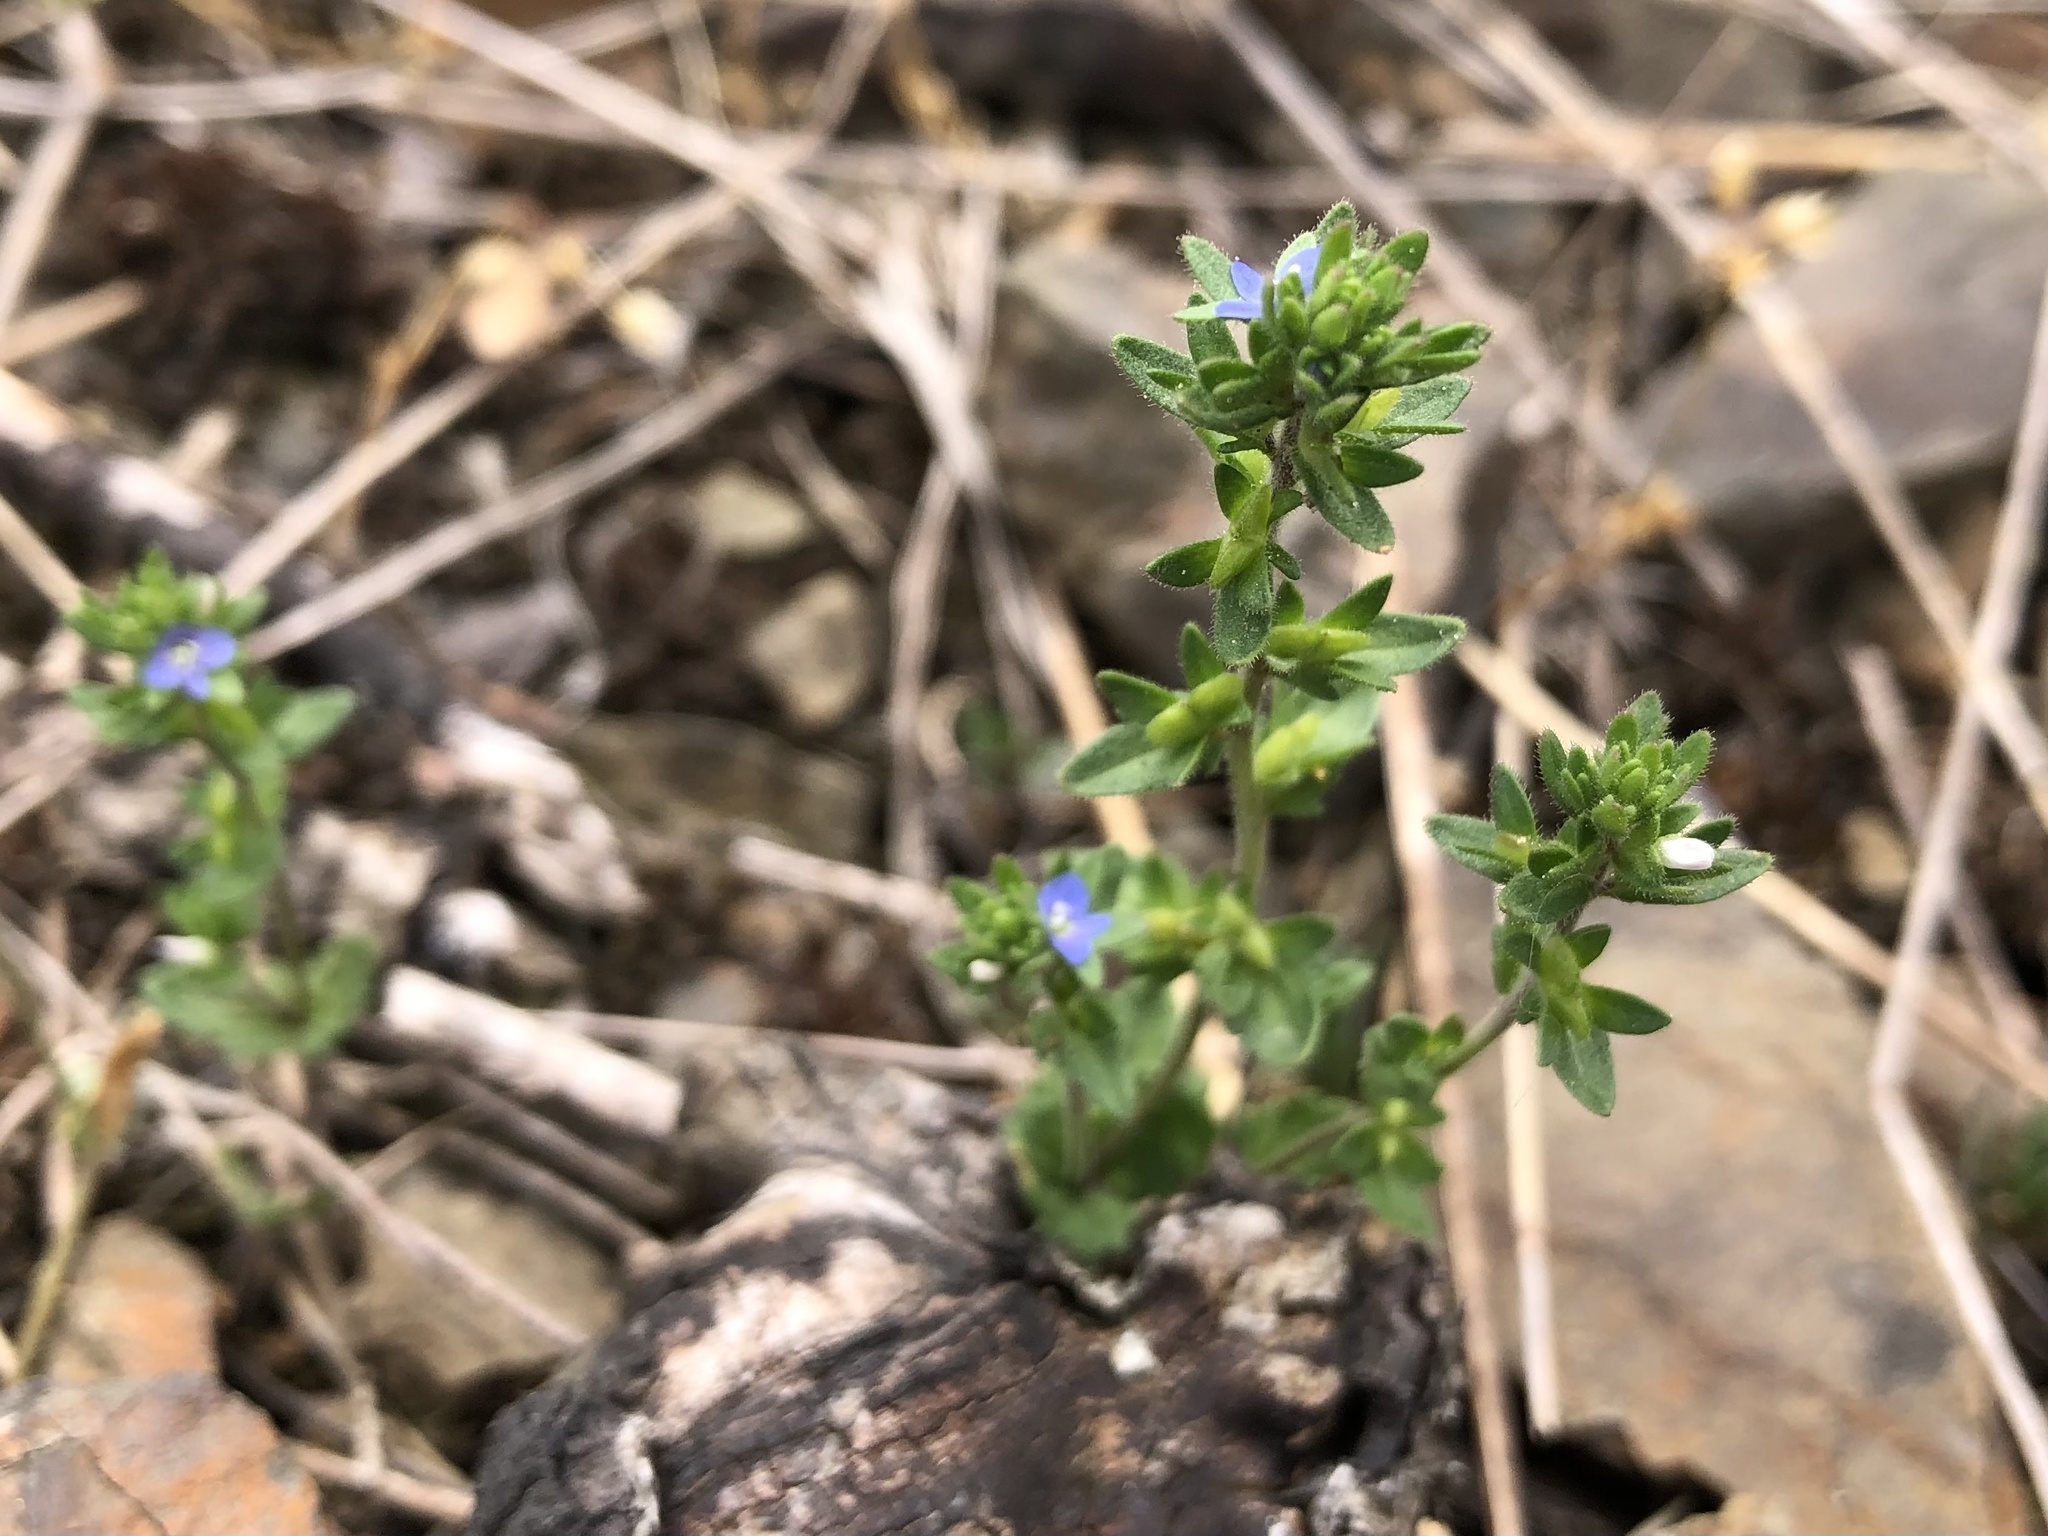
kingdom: Plantae
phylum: Tracheophyta
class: Magnoliopsida
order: Lamiales
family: Plantaginaceae
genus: Veronica
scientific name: Veronica arvensis
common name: Corn speedwell
